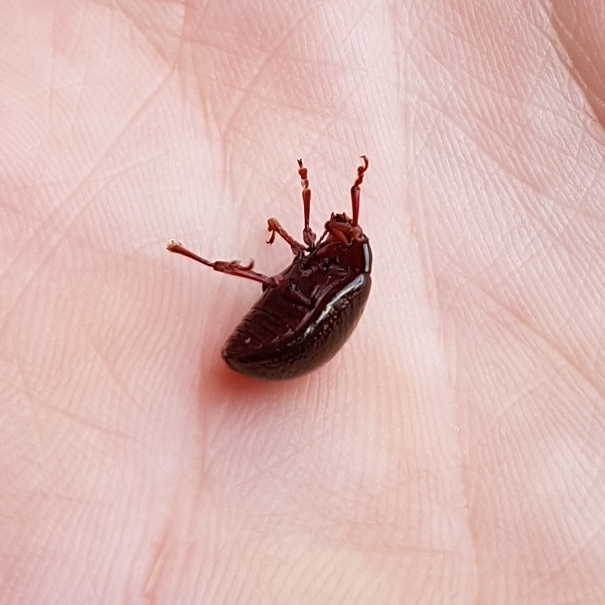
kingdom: Animalia
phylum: Arthropoda
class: Insecta
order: Coleoptera
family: Chrysomelidae
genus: Chrysolina
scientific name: Chrysolina bankii
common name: Leaf beetle
